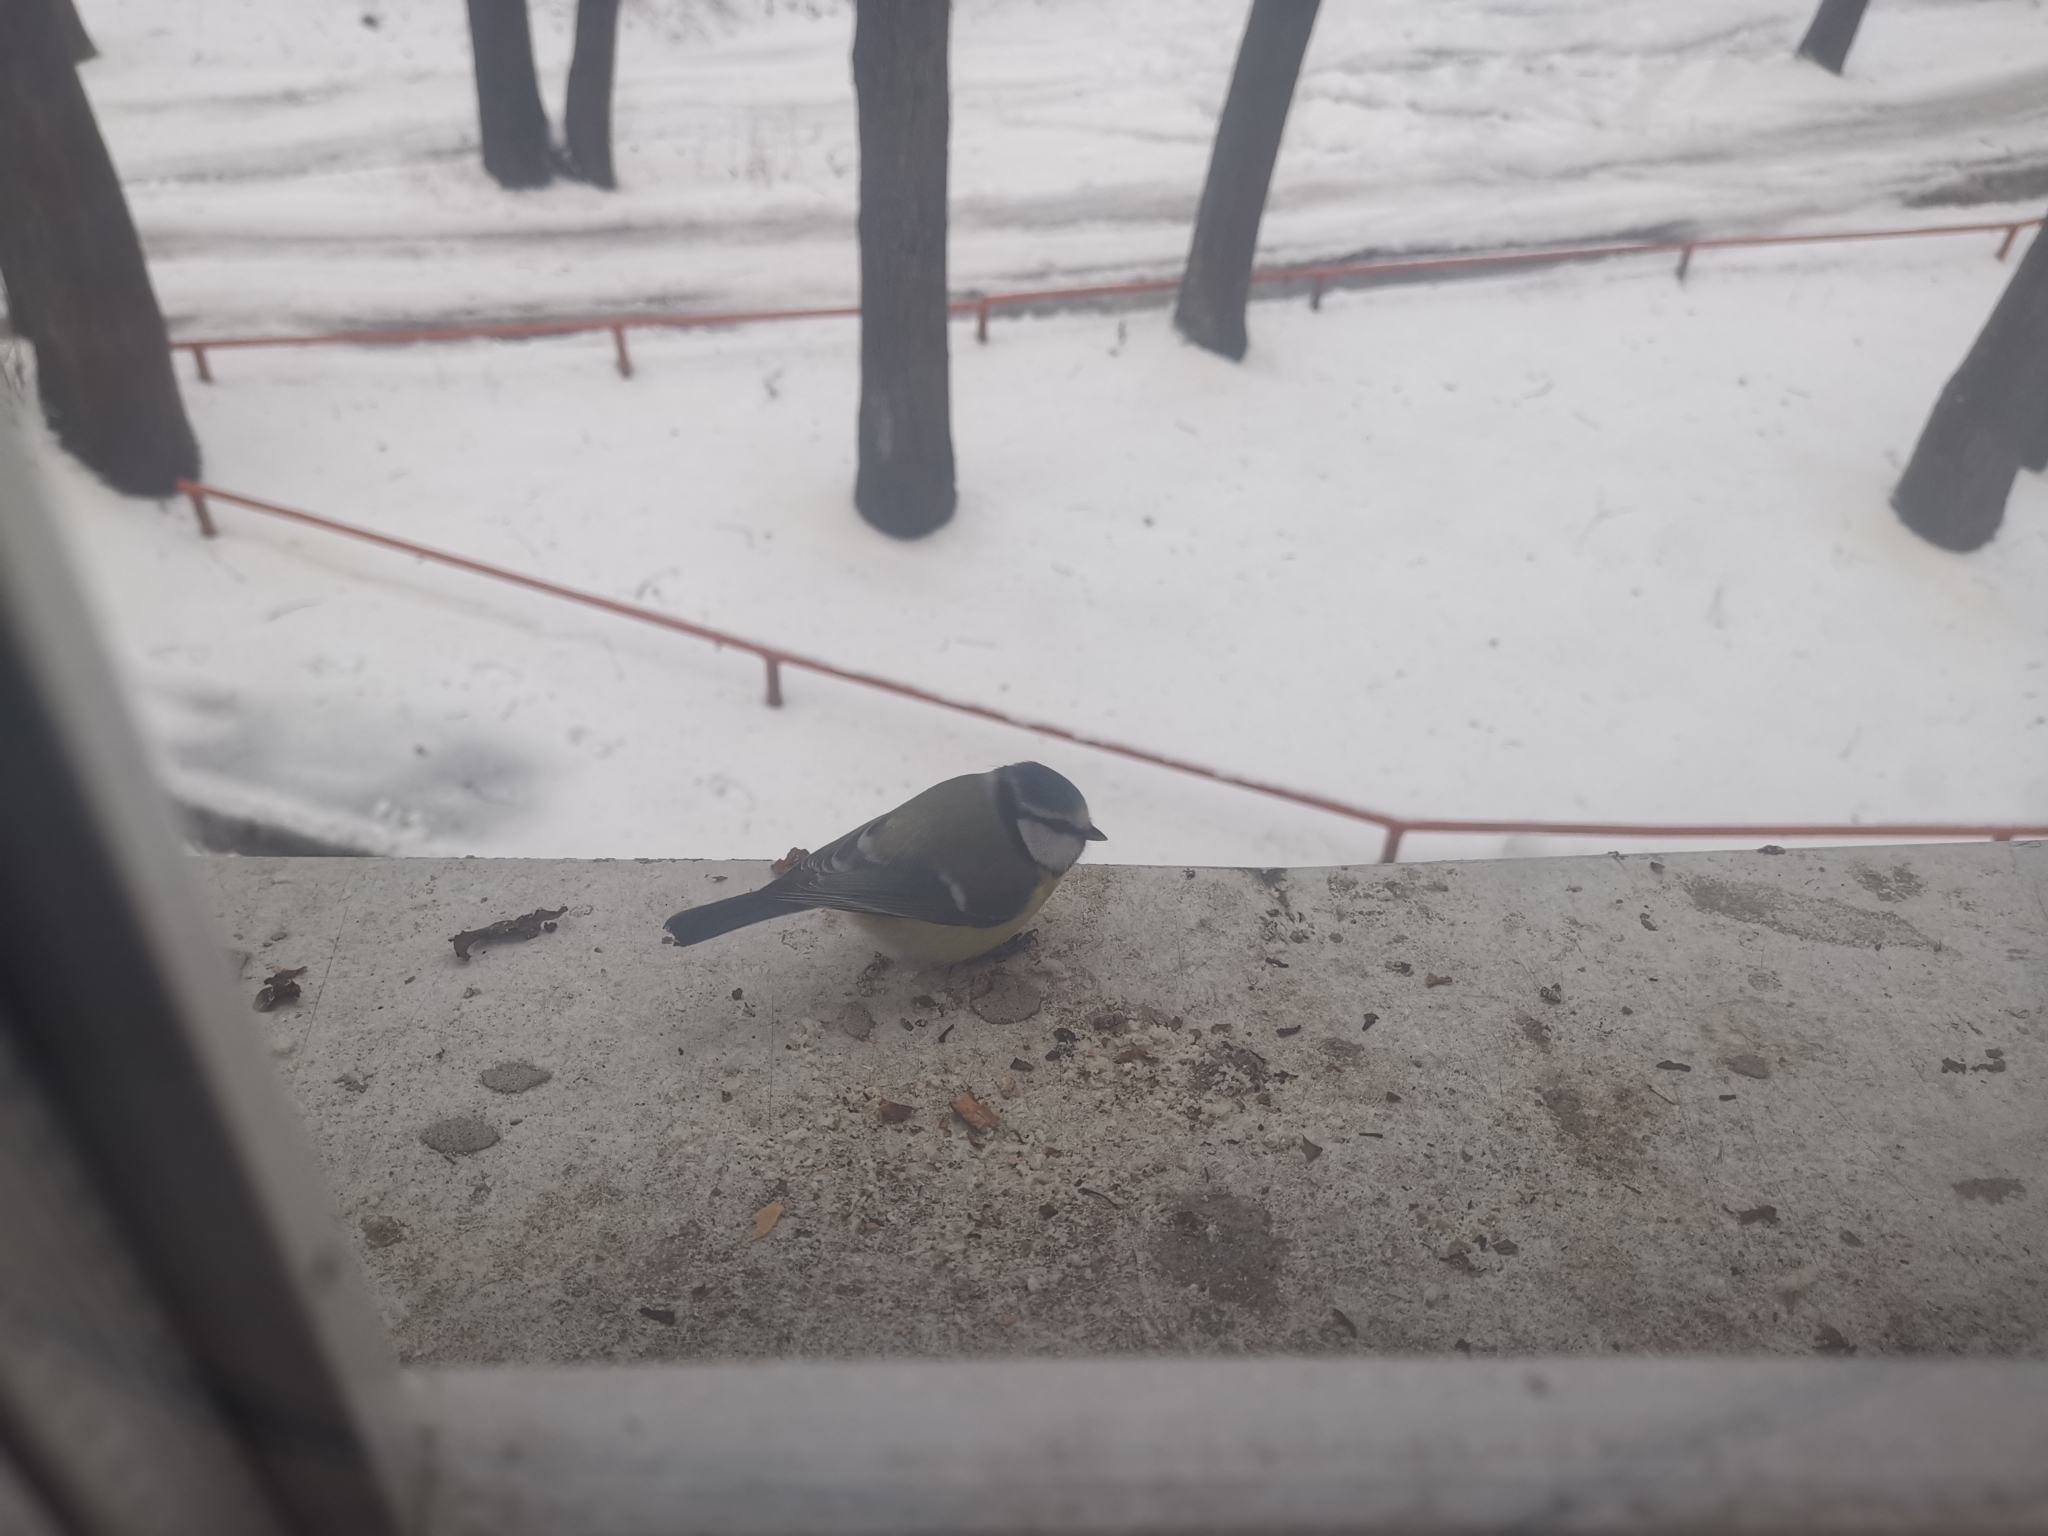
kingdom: Animalia
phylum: Chordata
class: Aves
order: Passeriformes
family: Paridae
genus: Cyanistes
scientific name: Cyanistes caeruleus
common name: Eurasian blue tit
